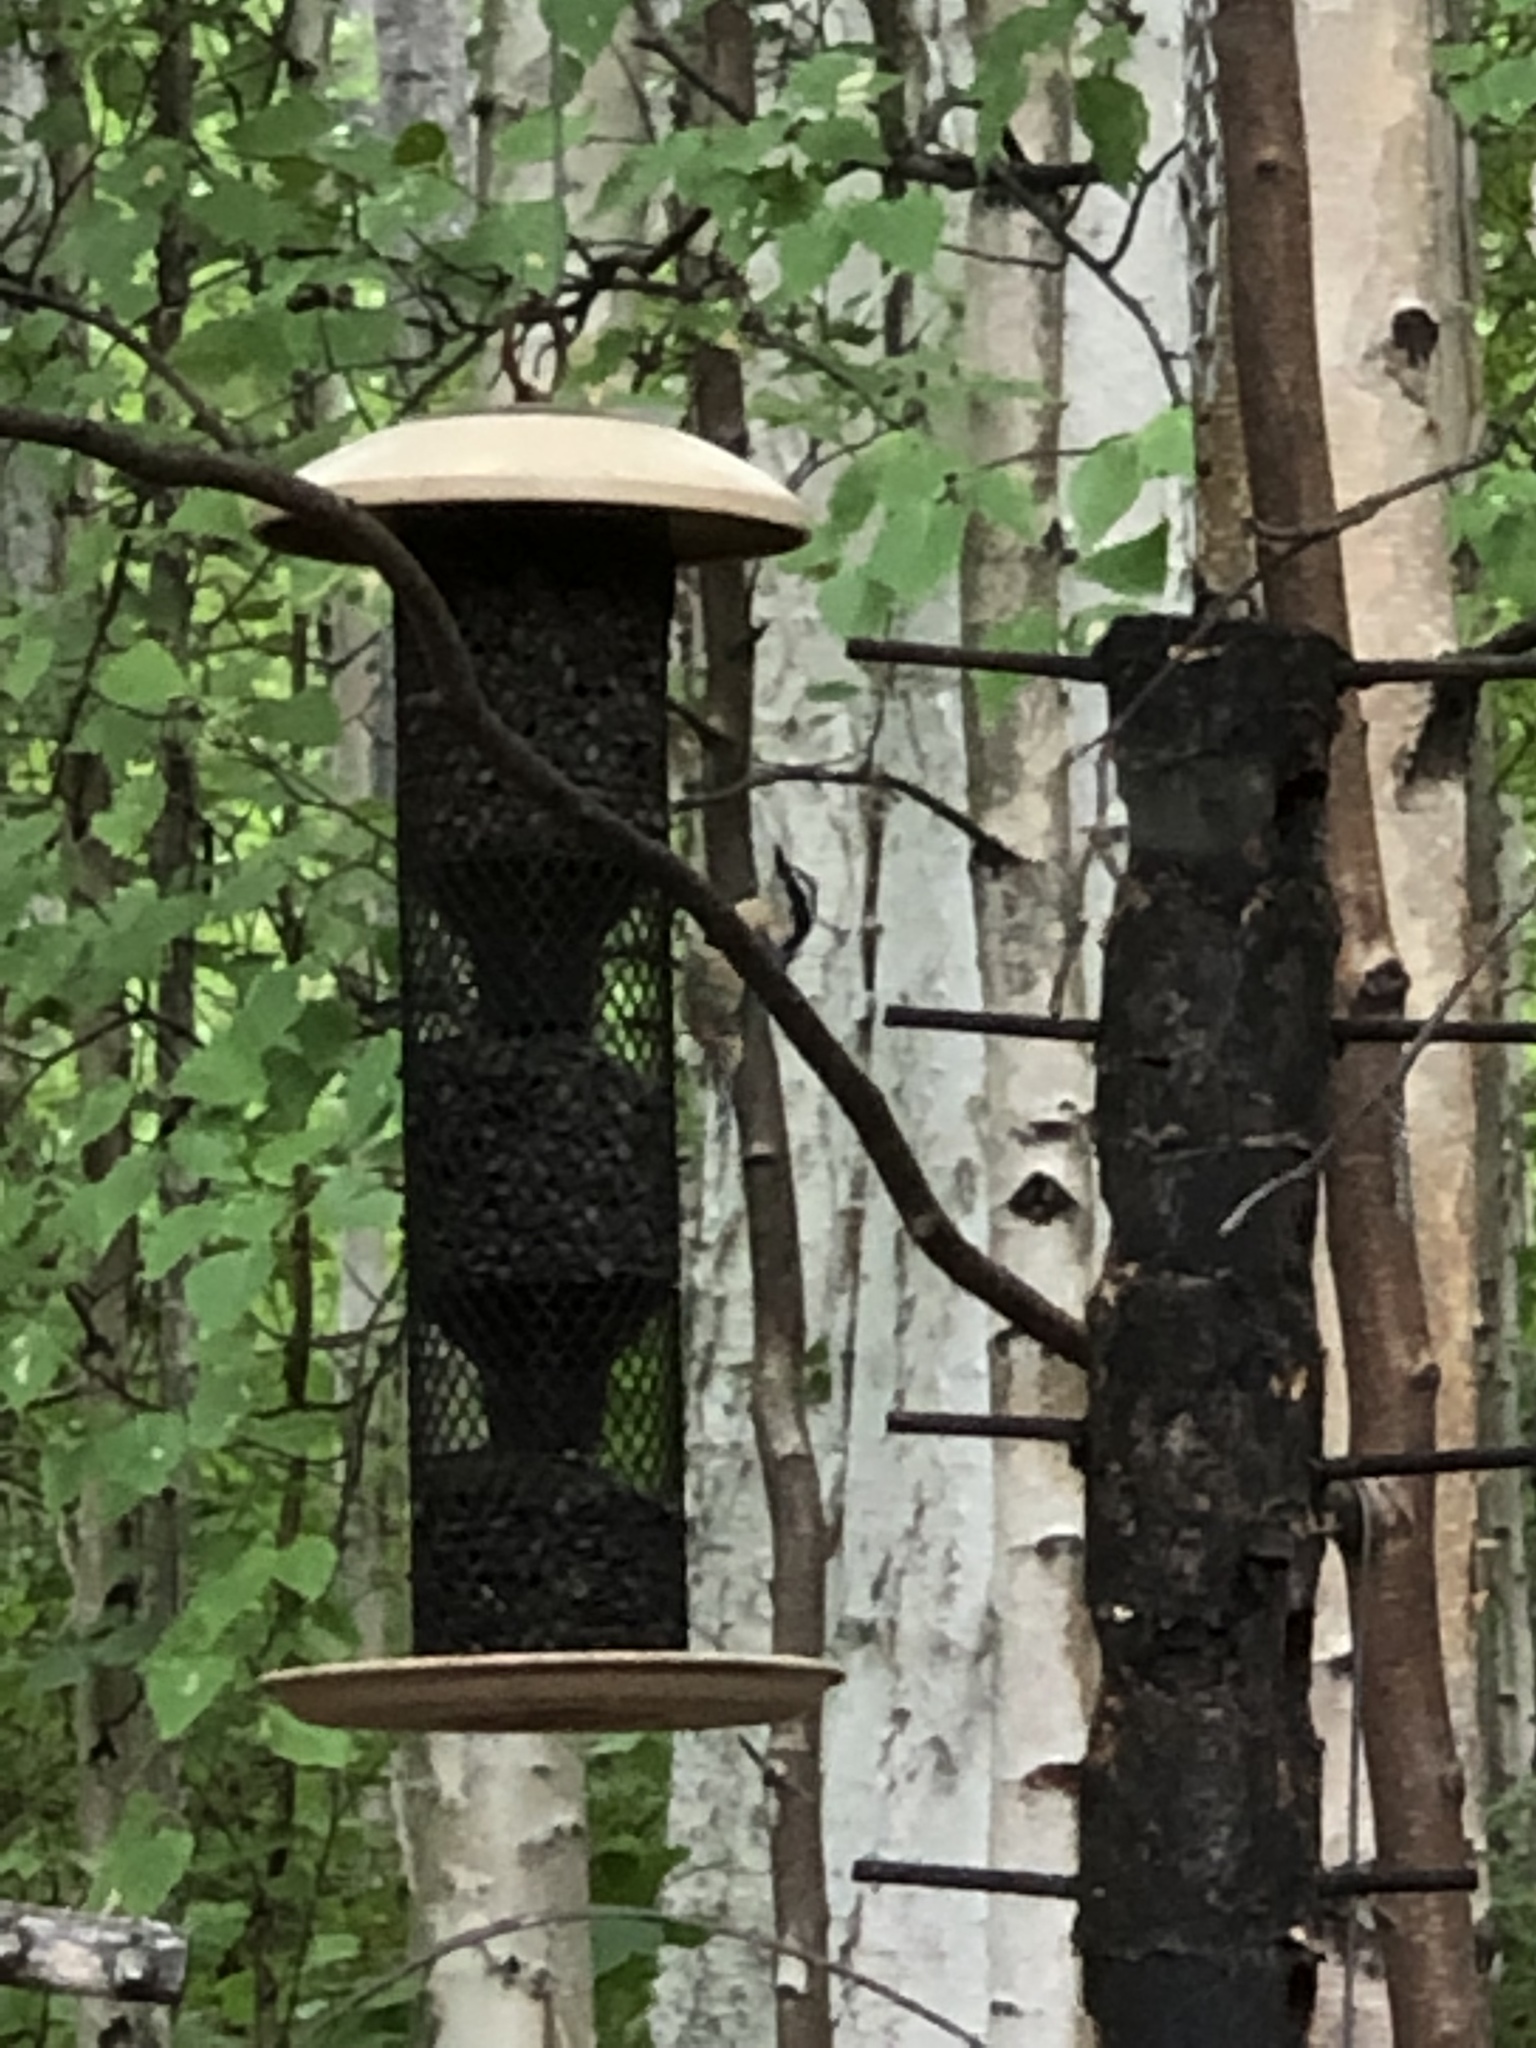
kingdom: Animalia
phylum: Chordata
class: Aves
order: Passeriformes
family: Sittidae
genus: Sitta
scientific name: Sitta canadensis
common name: Red-breasted nuthatch
